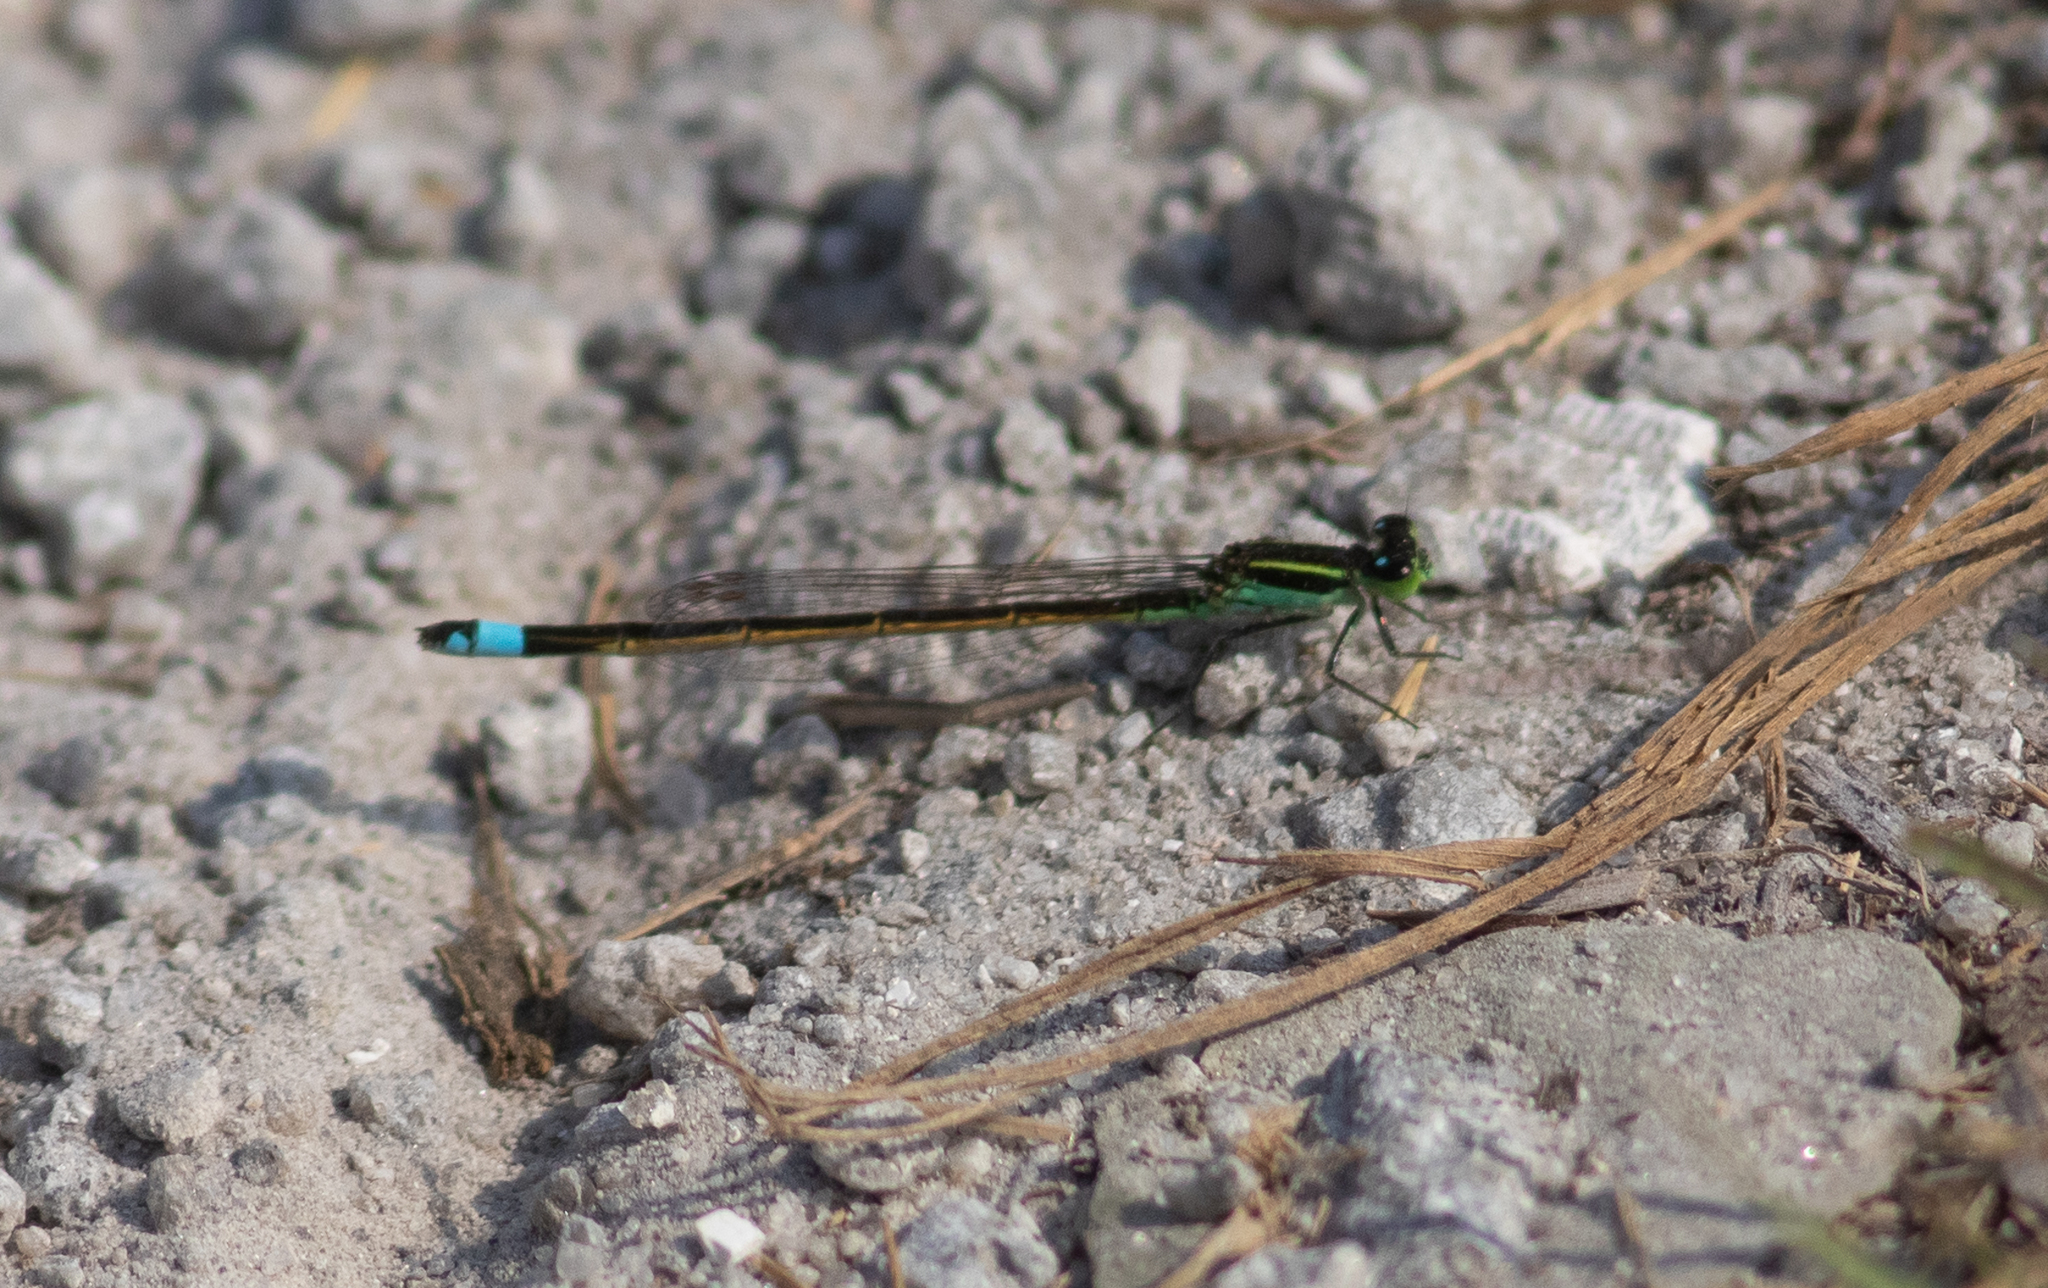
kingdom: Animalia
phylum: Arthropoda
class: Insecta
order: Odonata
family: Coenagrionidae
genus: Ischnura
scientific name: Ischnura ramburii
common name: Rambur's forktail
